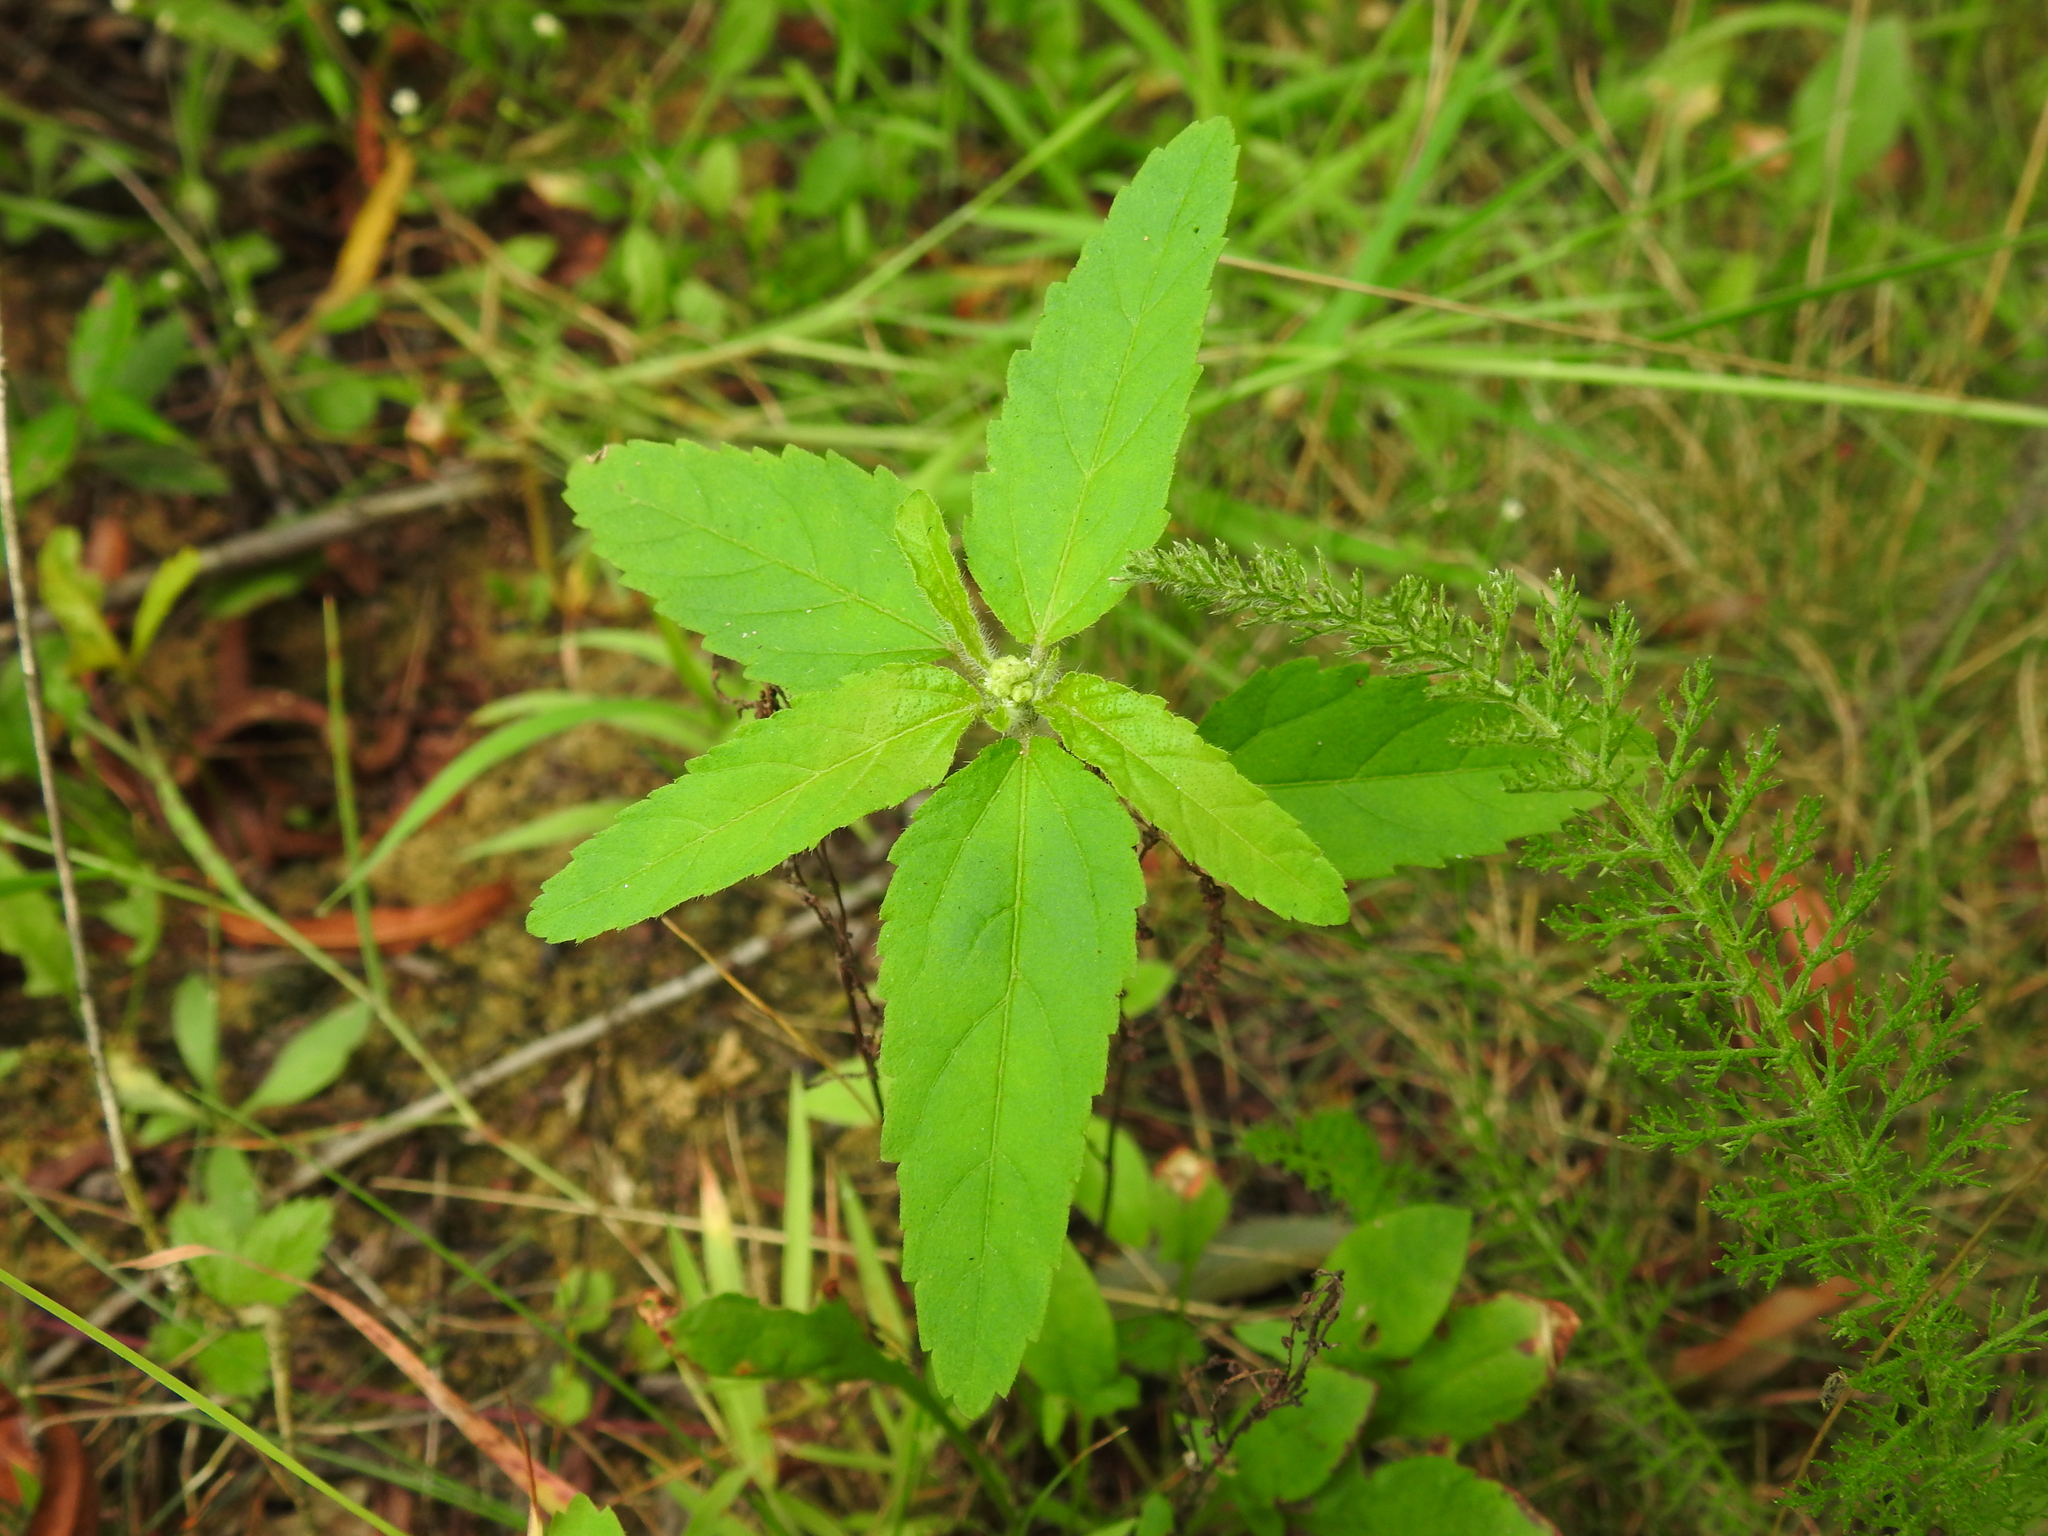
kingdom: Plantae
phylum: Tracheophyta
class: Magnoliopsida
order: Malpighiales
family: Euphorbiaceae
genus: Croton
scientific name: Croton glandulosus
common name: Tropic croton
